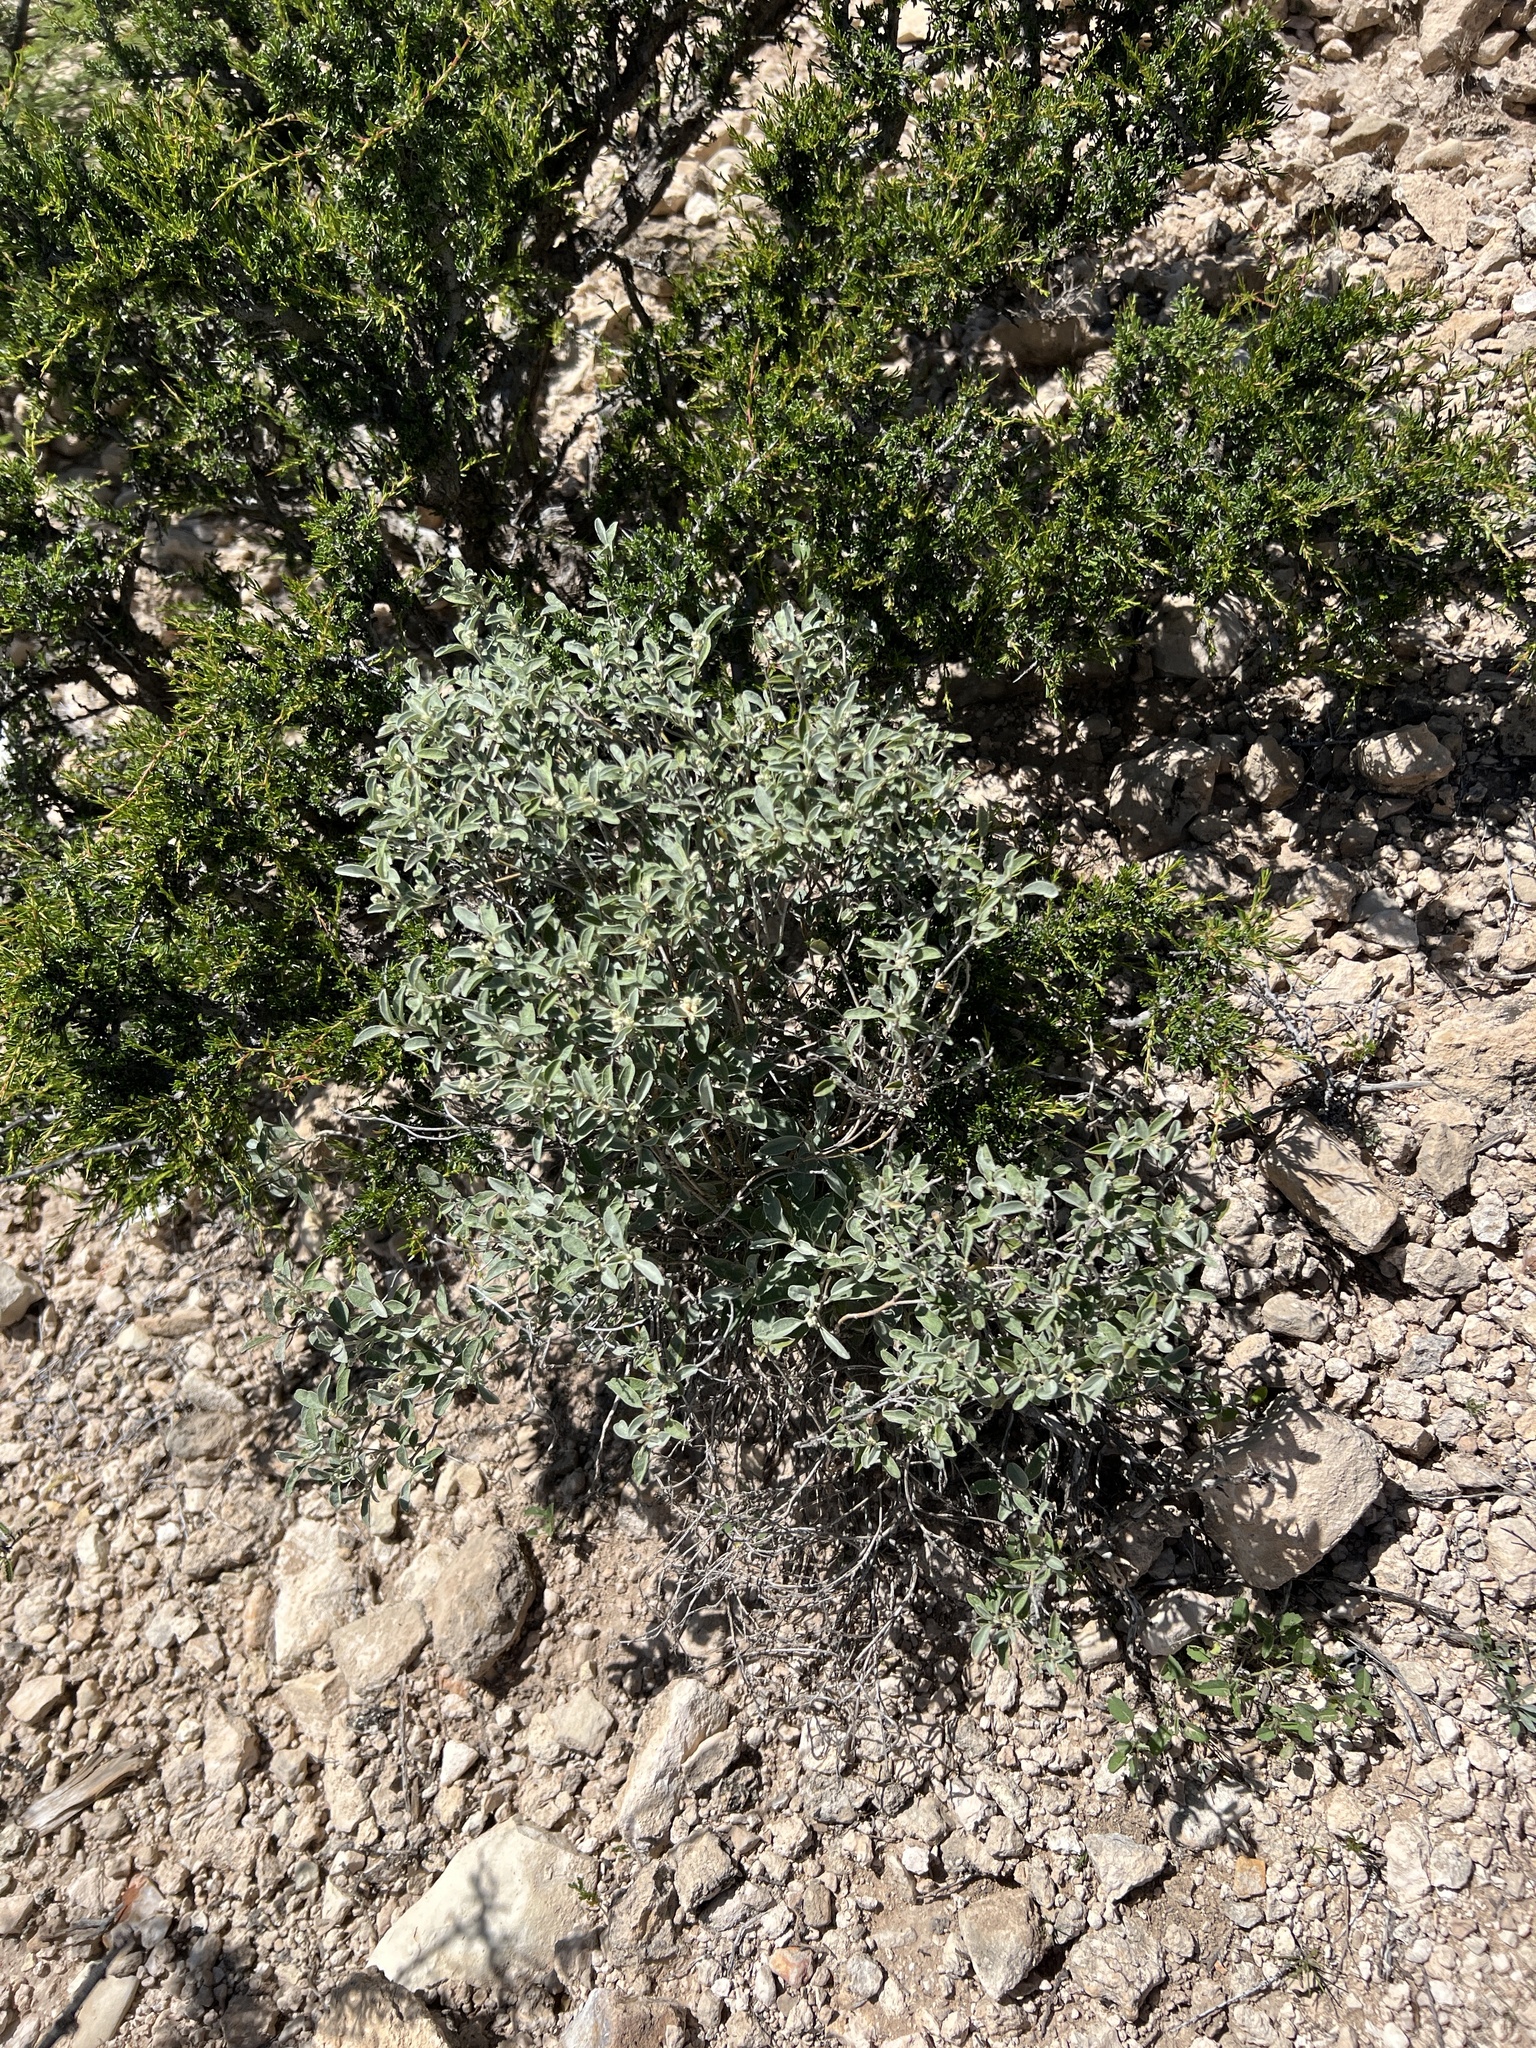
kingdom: Plantae
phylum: Tracheophyta
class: Magnoliopsida
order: Malpighiales
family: Euphorbiaceae
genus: Croton
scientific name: Croton dioicus
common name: Grassland croton
